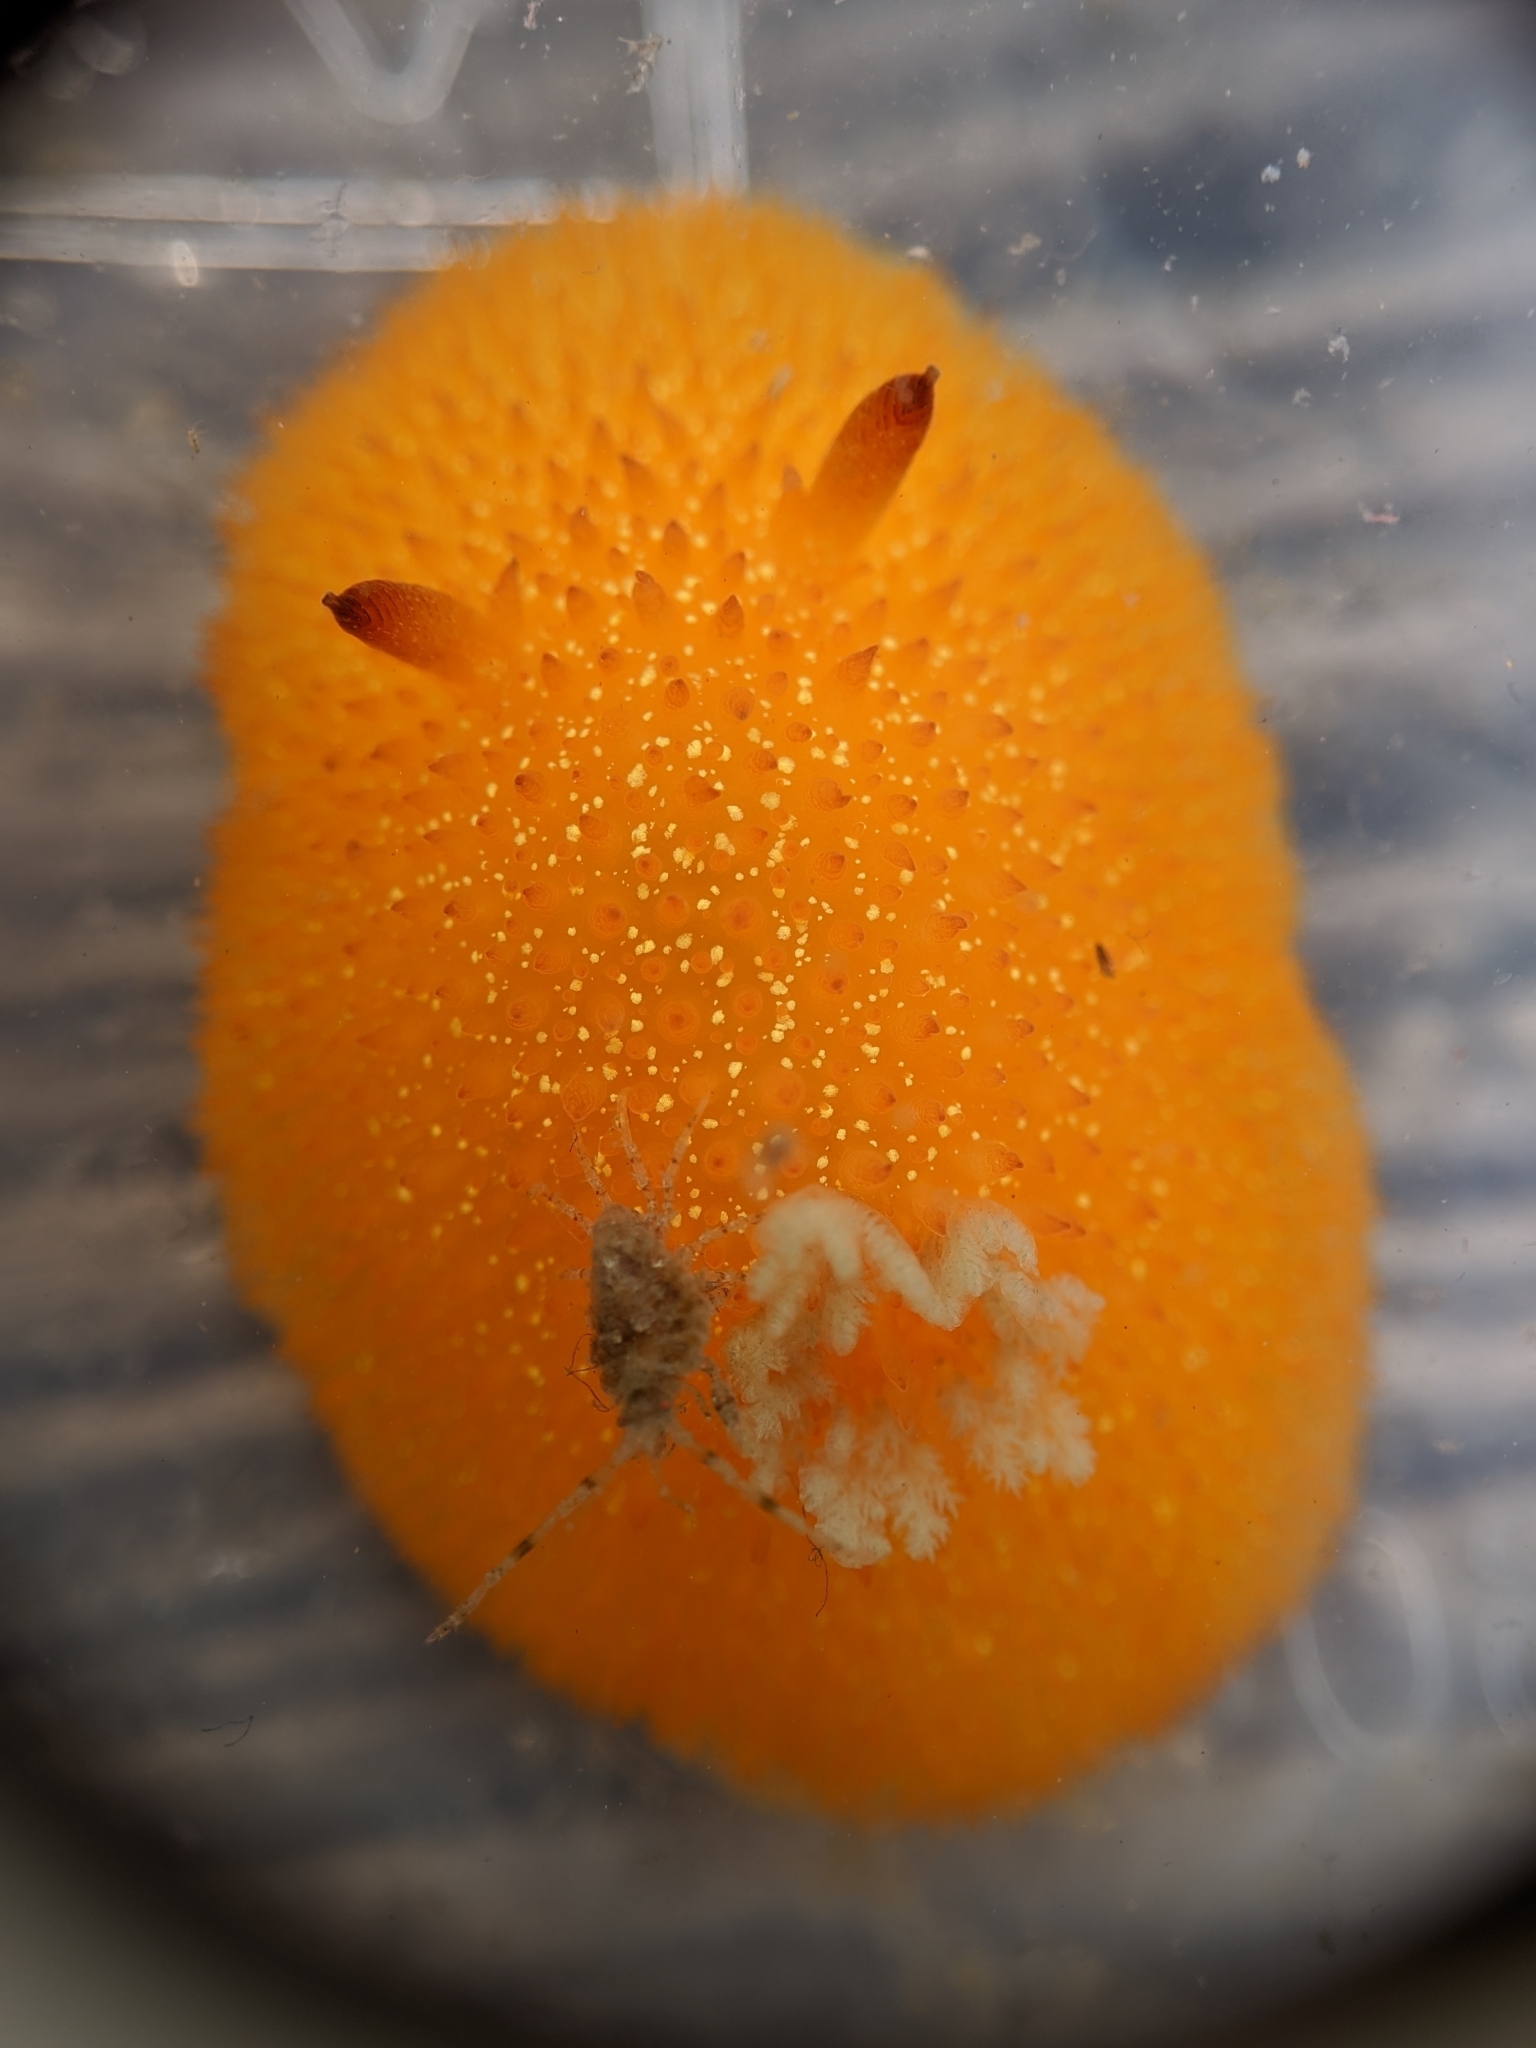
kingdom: Animalia
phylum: Mollusca
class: Gastropoda
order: Nudibranchia
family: Onchidorididae
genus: Acanthodoris
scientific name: Acanthodoris lutea
